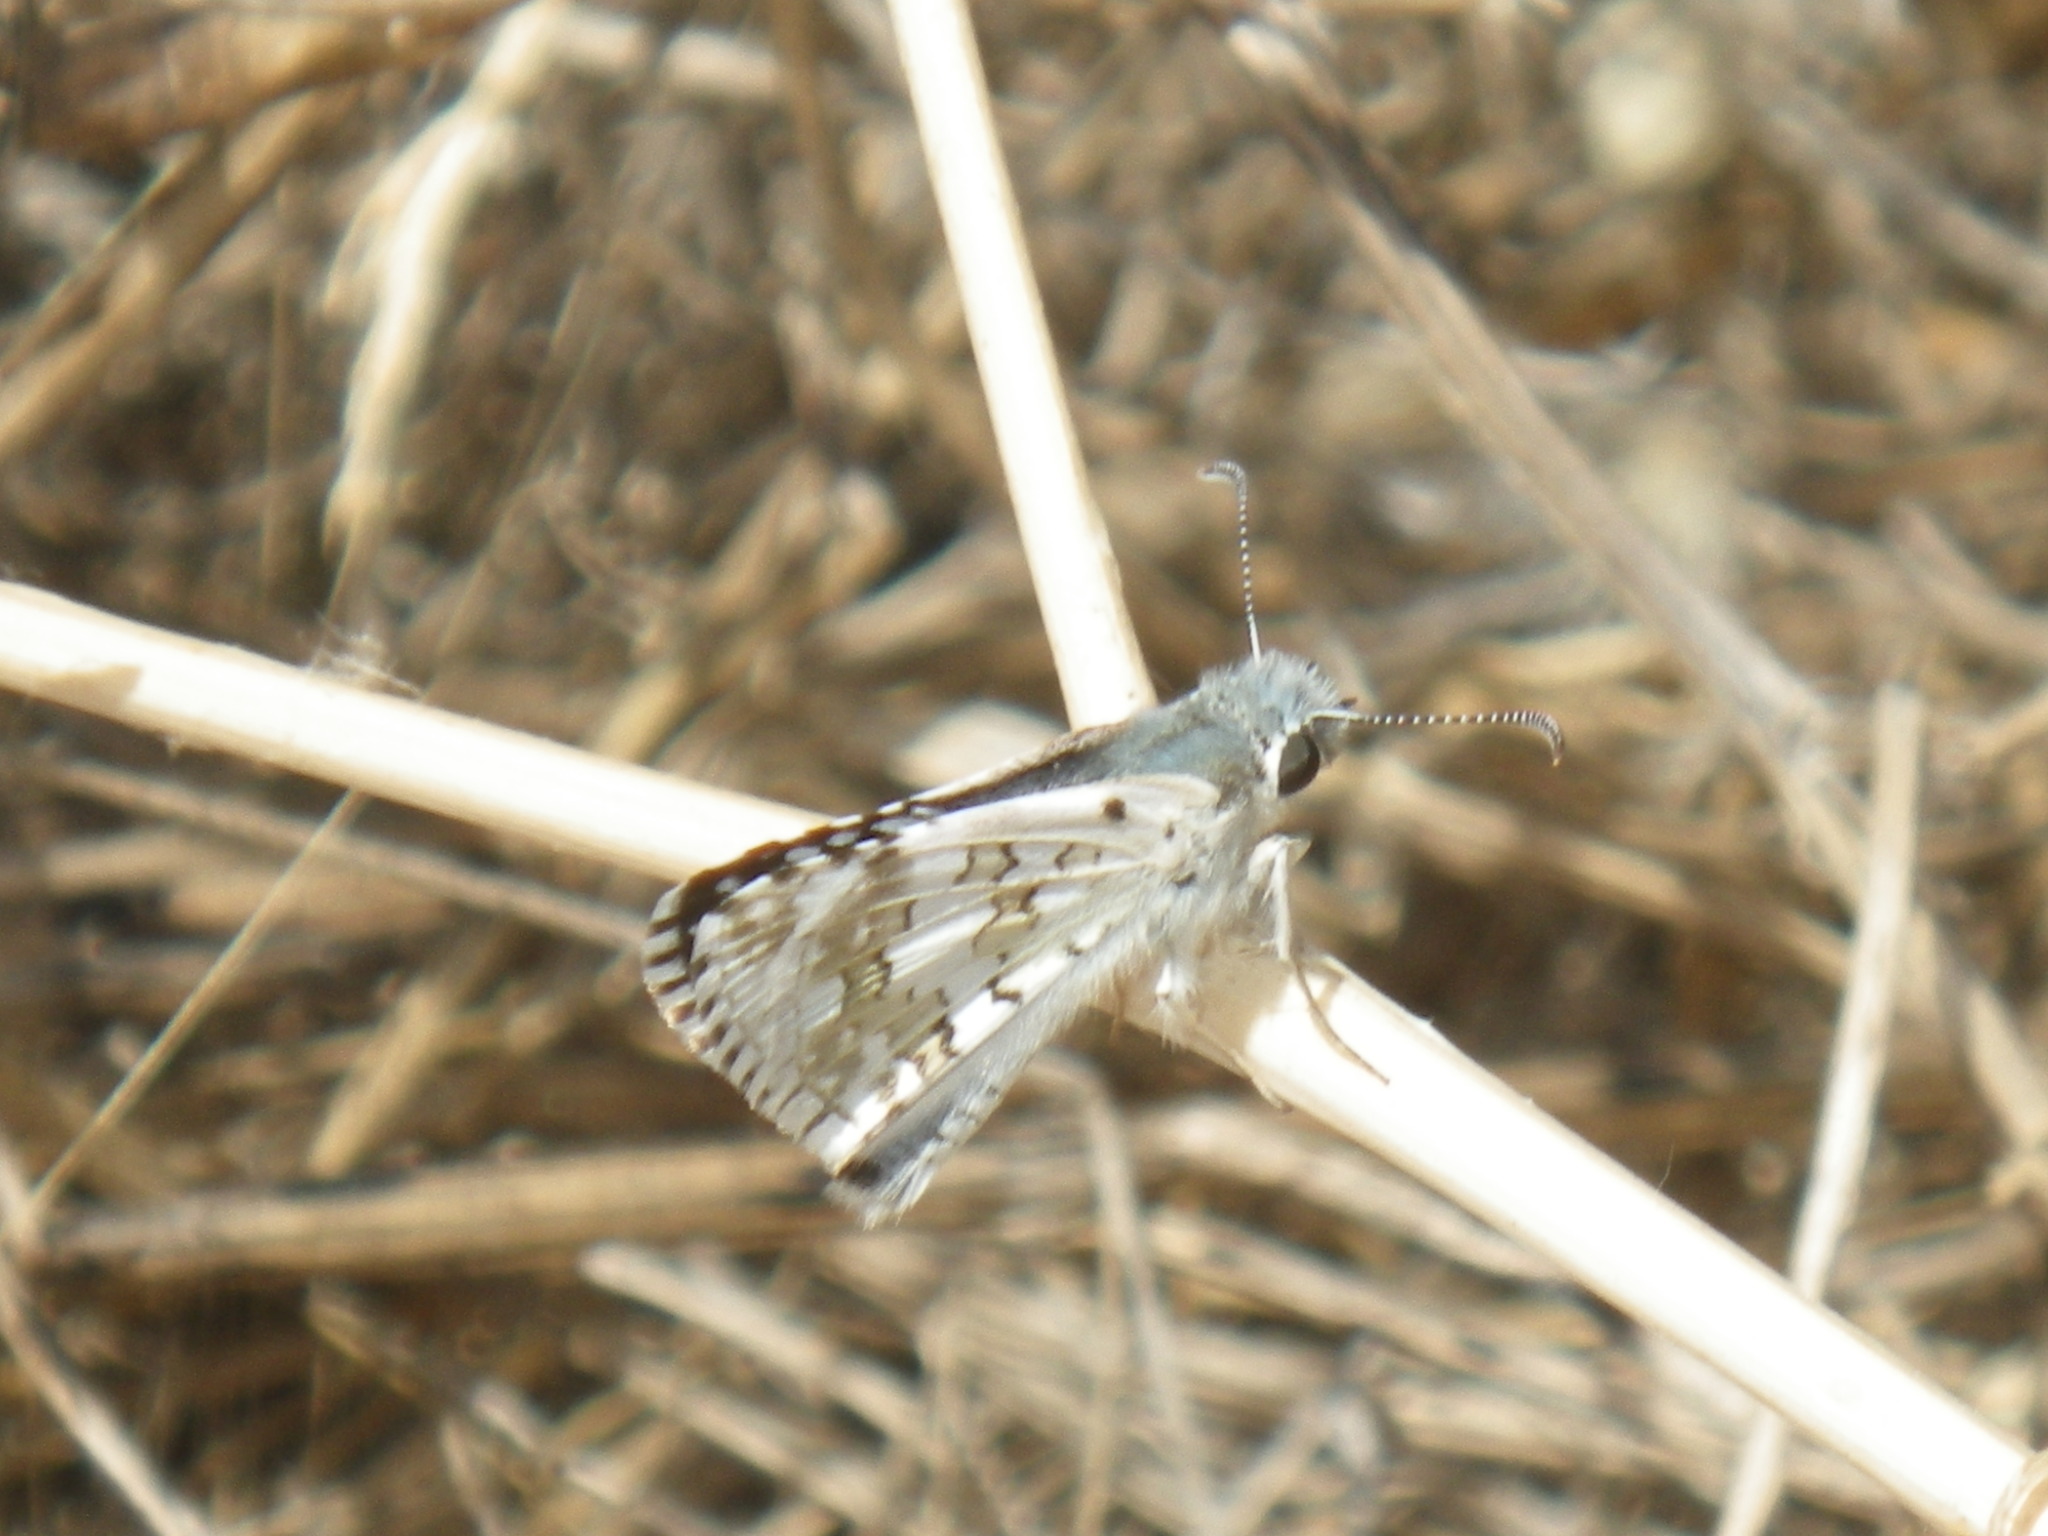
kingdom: Animalia
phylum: Arthropoda
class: Insecta
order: Lepidoptera
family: Hesperiidae
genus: Burnsius
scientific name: Burnsius communis
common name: Common checkered-skipper
